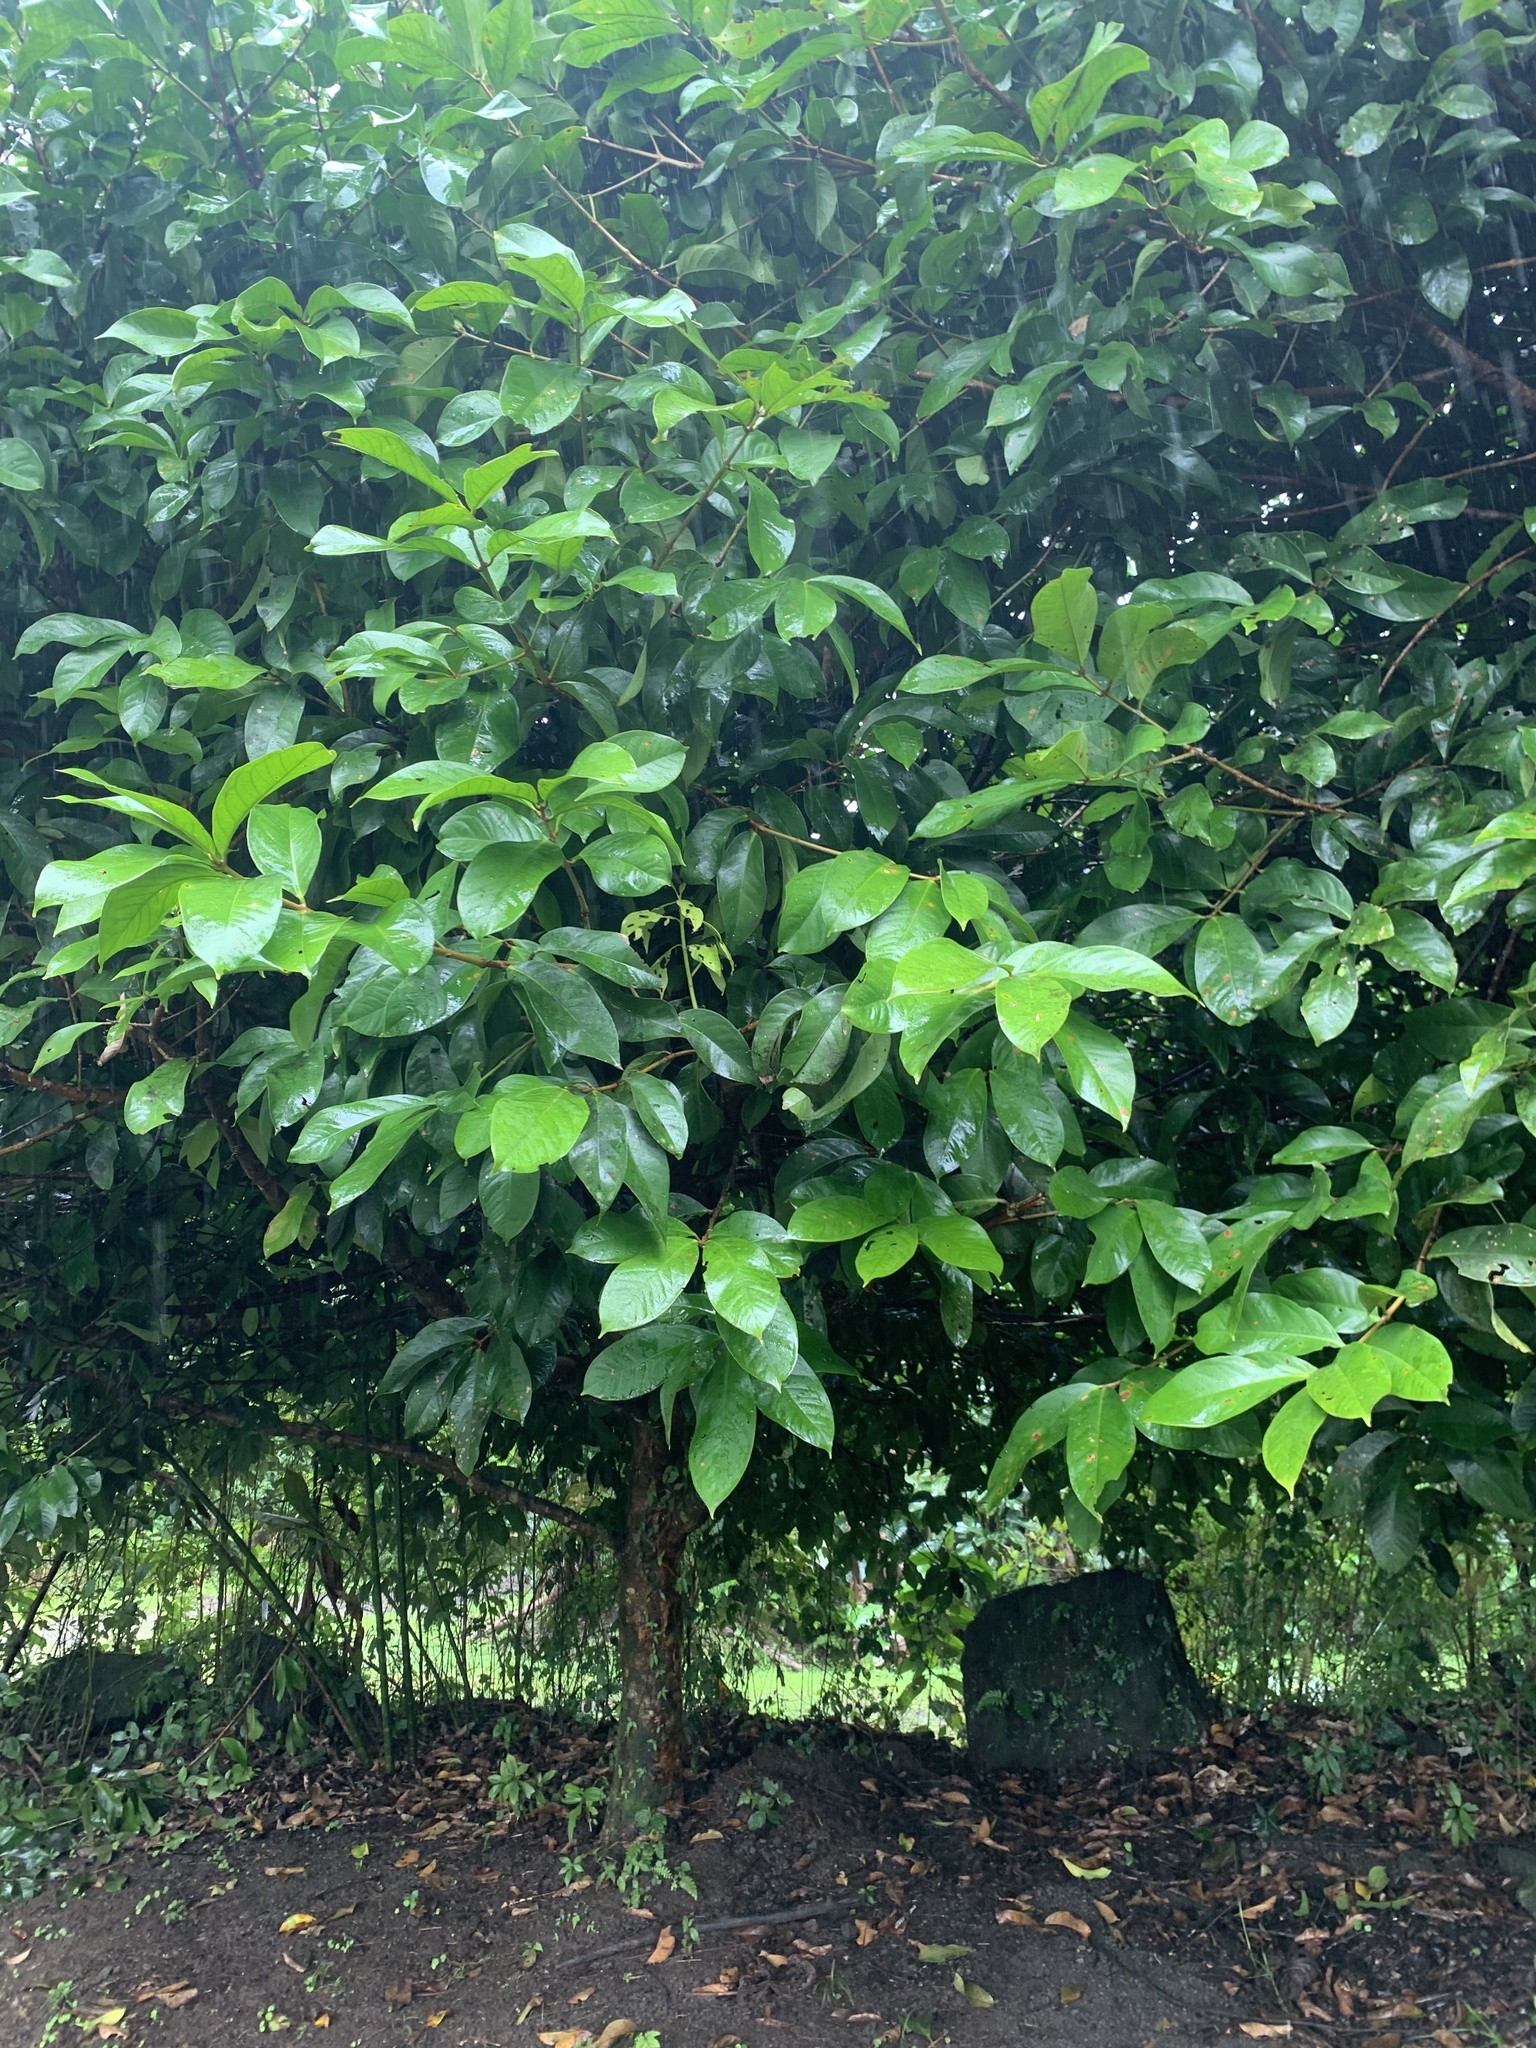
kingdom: Plantae
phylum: Tracheophyta
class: Magnoliopsida
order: Myrtales
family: Myrtaceae
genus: Syzygium
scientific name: Syzygium malaccense
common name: Malaysian apple
